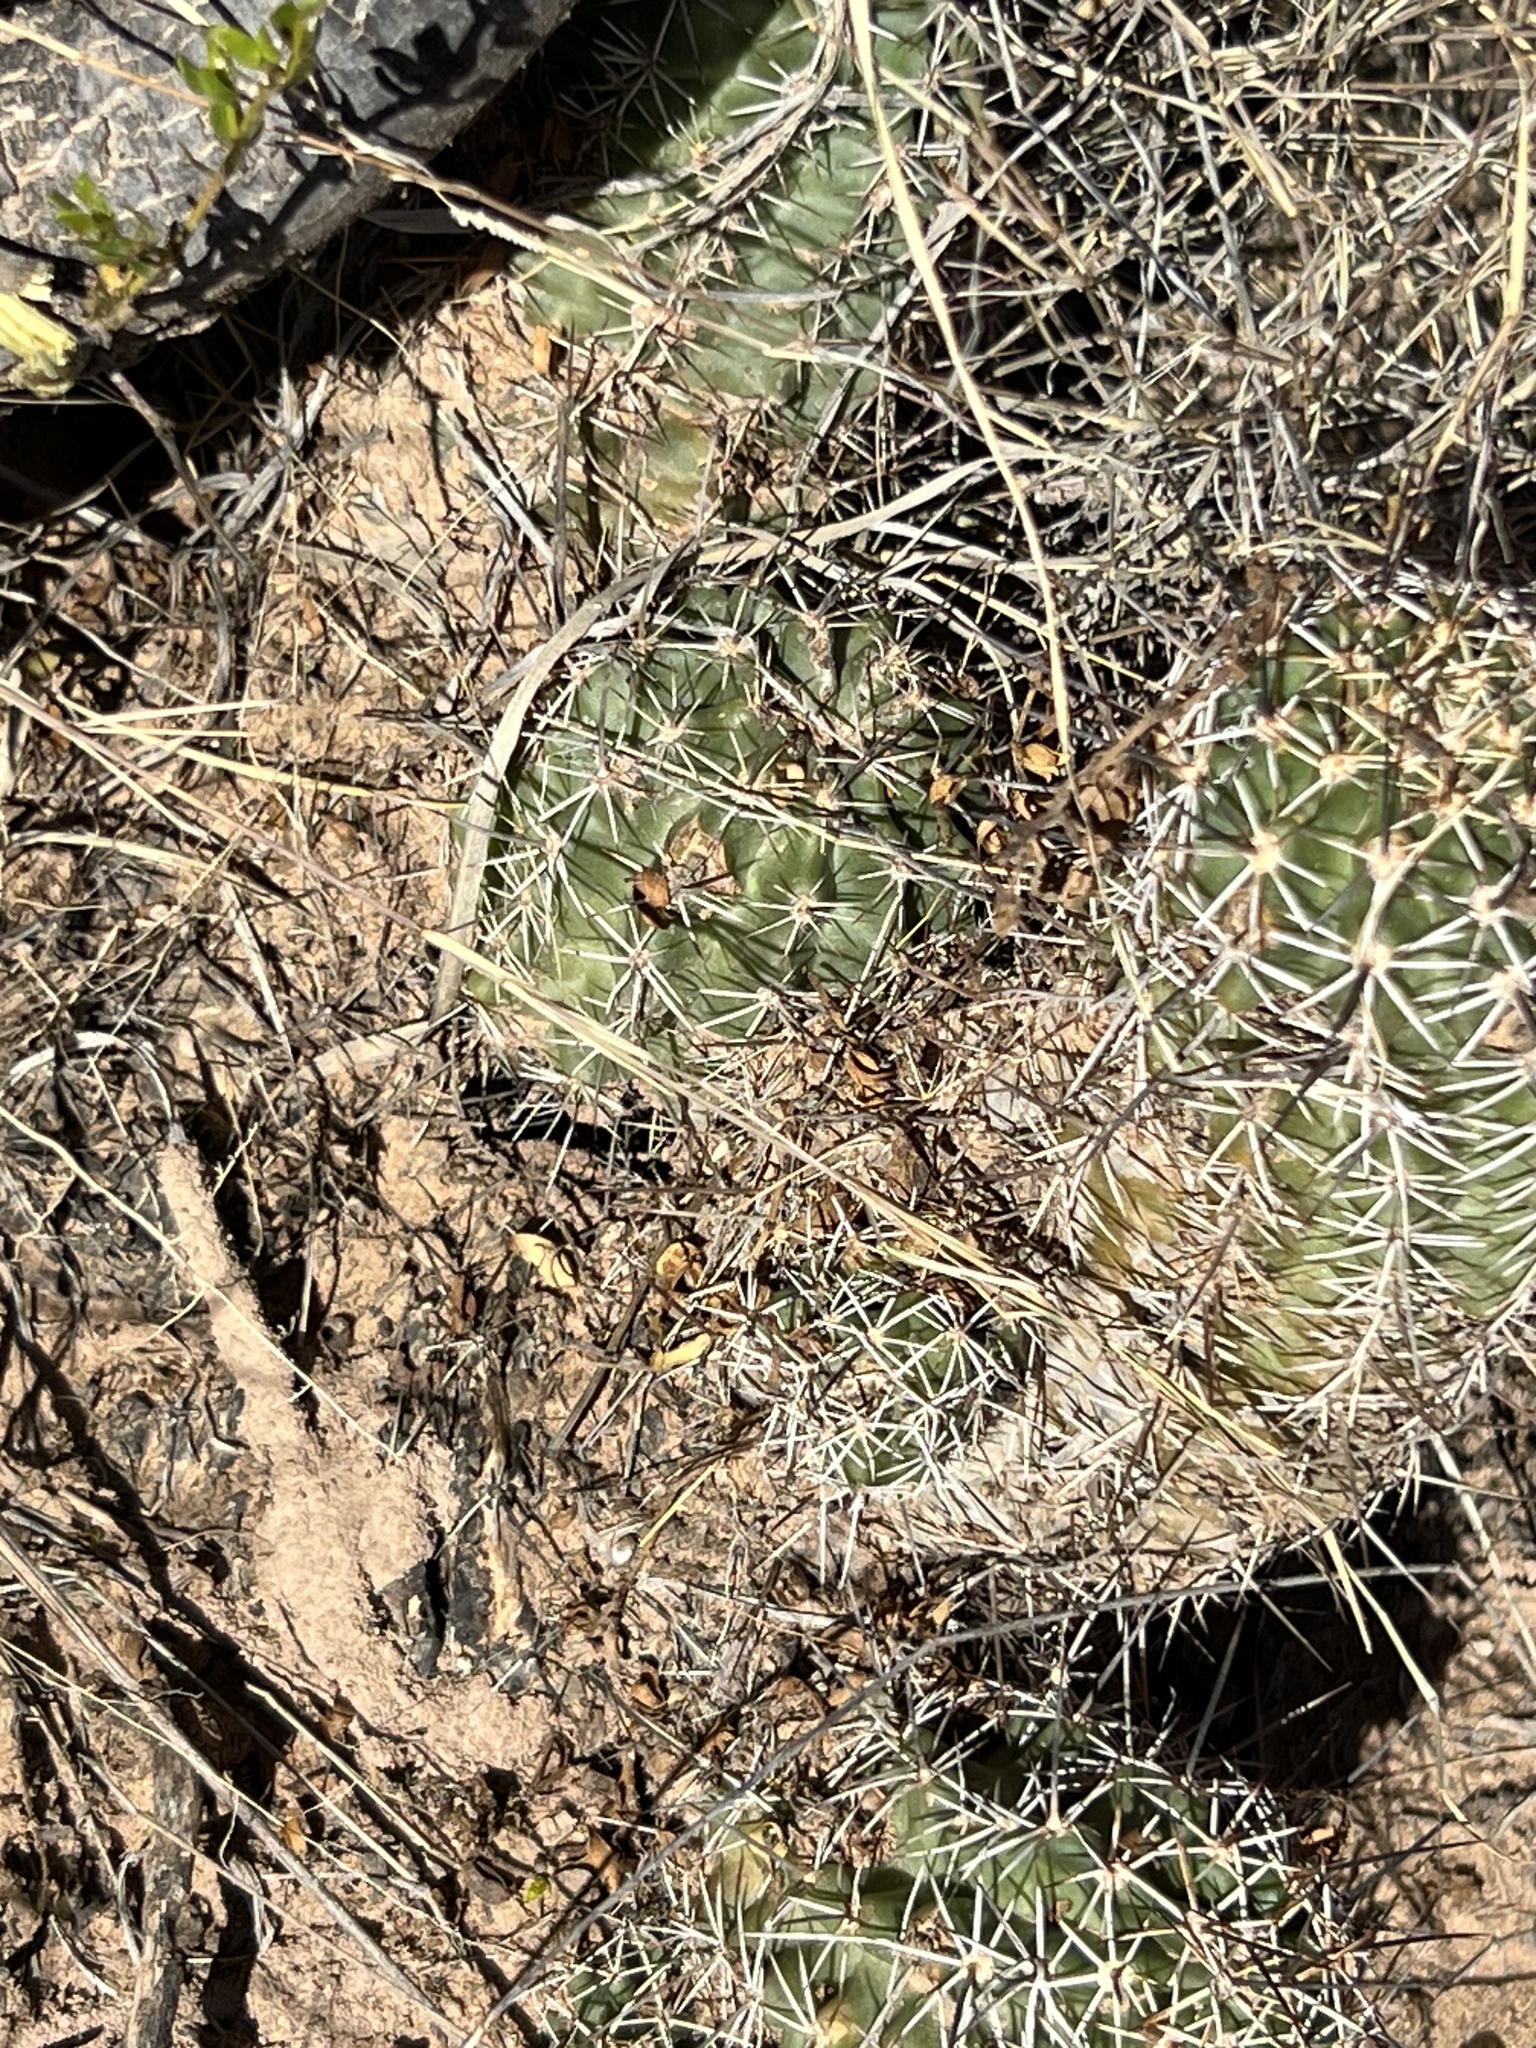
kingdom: Plantae
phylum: Tracheophyta
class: Magnoliopsida
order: Caryophyllales
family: Cactaceae
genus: Echinocereus
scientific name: Echinocereus fendleri
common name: Fendler's hedgehog cactus
